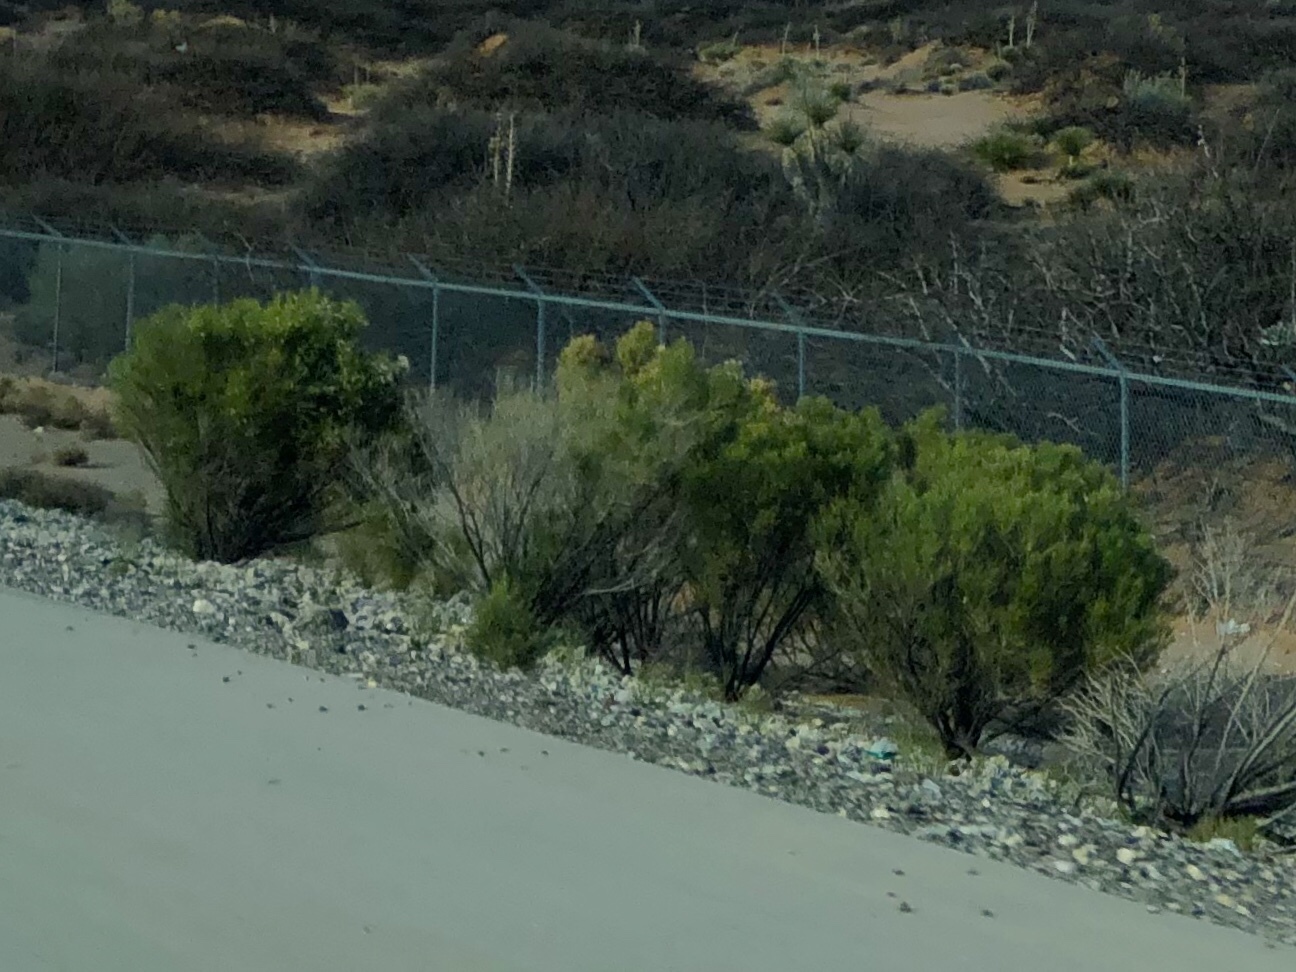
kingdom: Plantae
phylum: Tracheophyta
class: Magnoliopsida
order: Asterales
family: Asteraceae
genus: Baccharis
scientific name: Baccharis sarothroides
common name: Desert-broom
